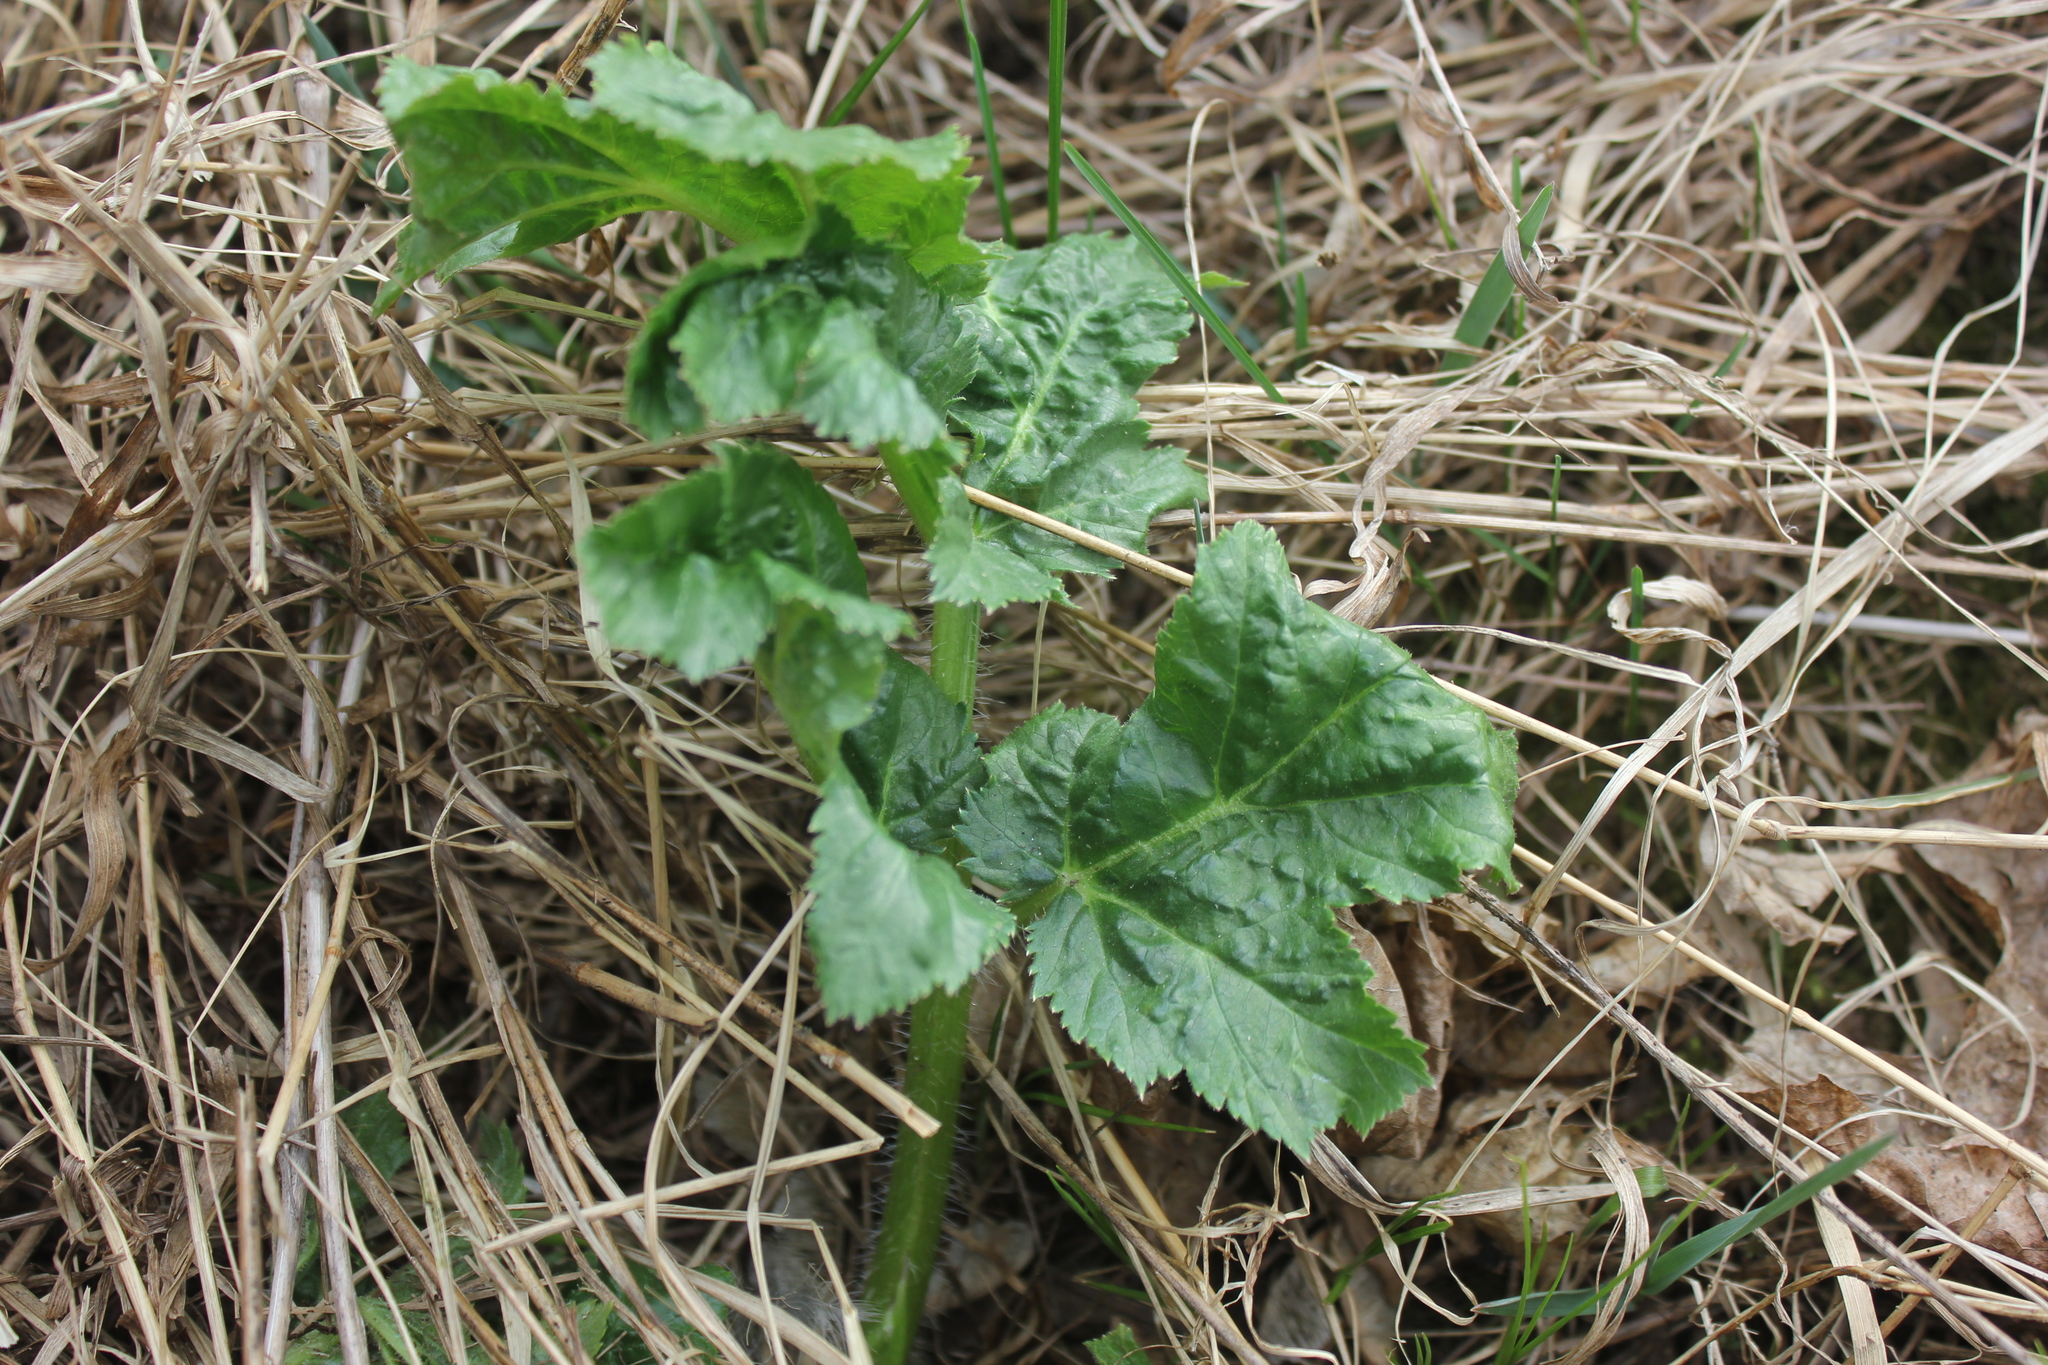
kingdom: Plantae
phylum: Tracheophyta
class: Magnoliopsida
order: Apiales
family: Apiaceae
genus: Heracleum
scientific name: Heracleum sosnowskyi
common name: Sosnowsky's hogweed
